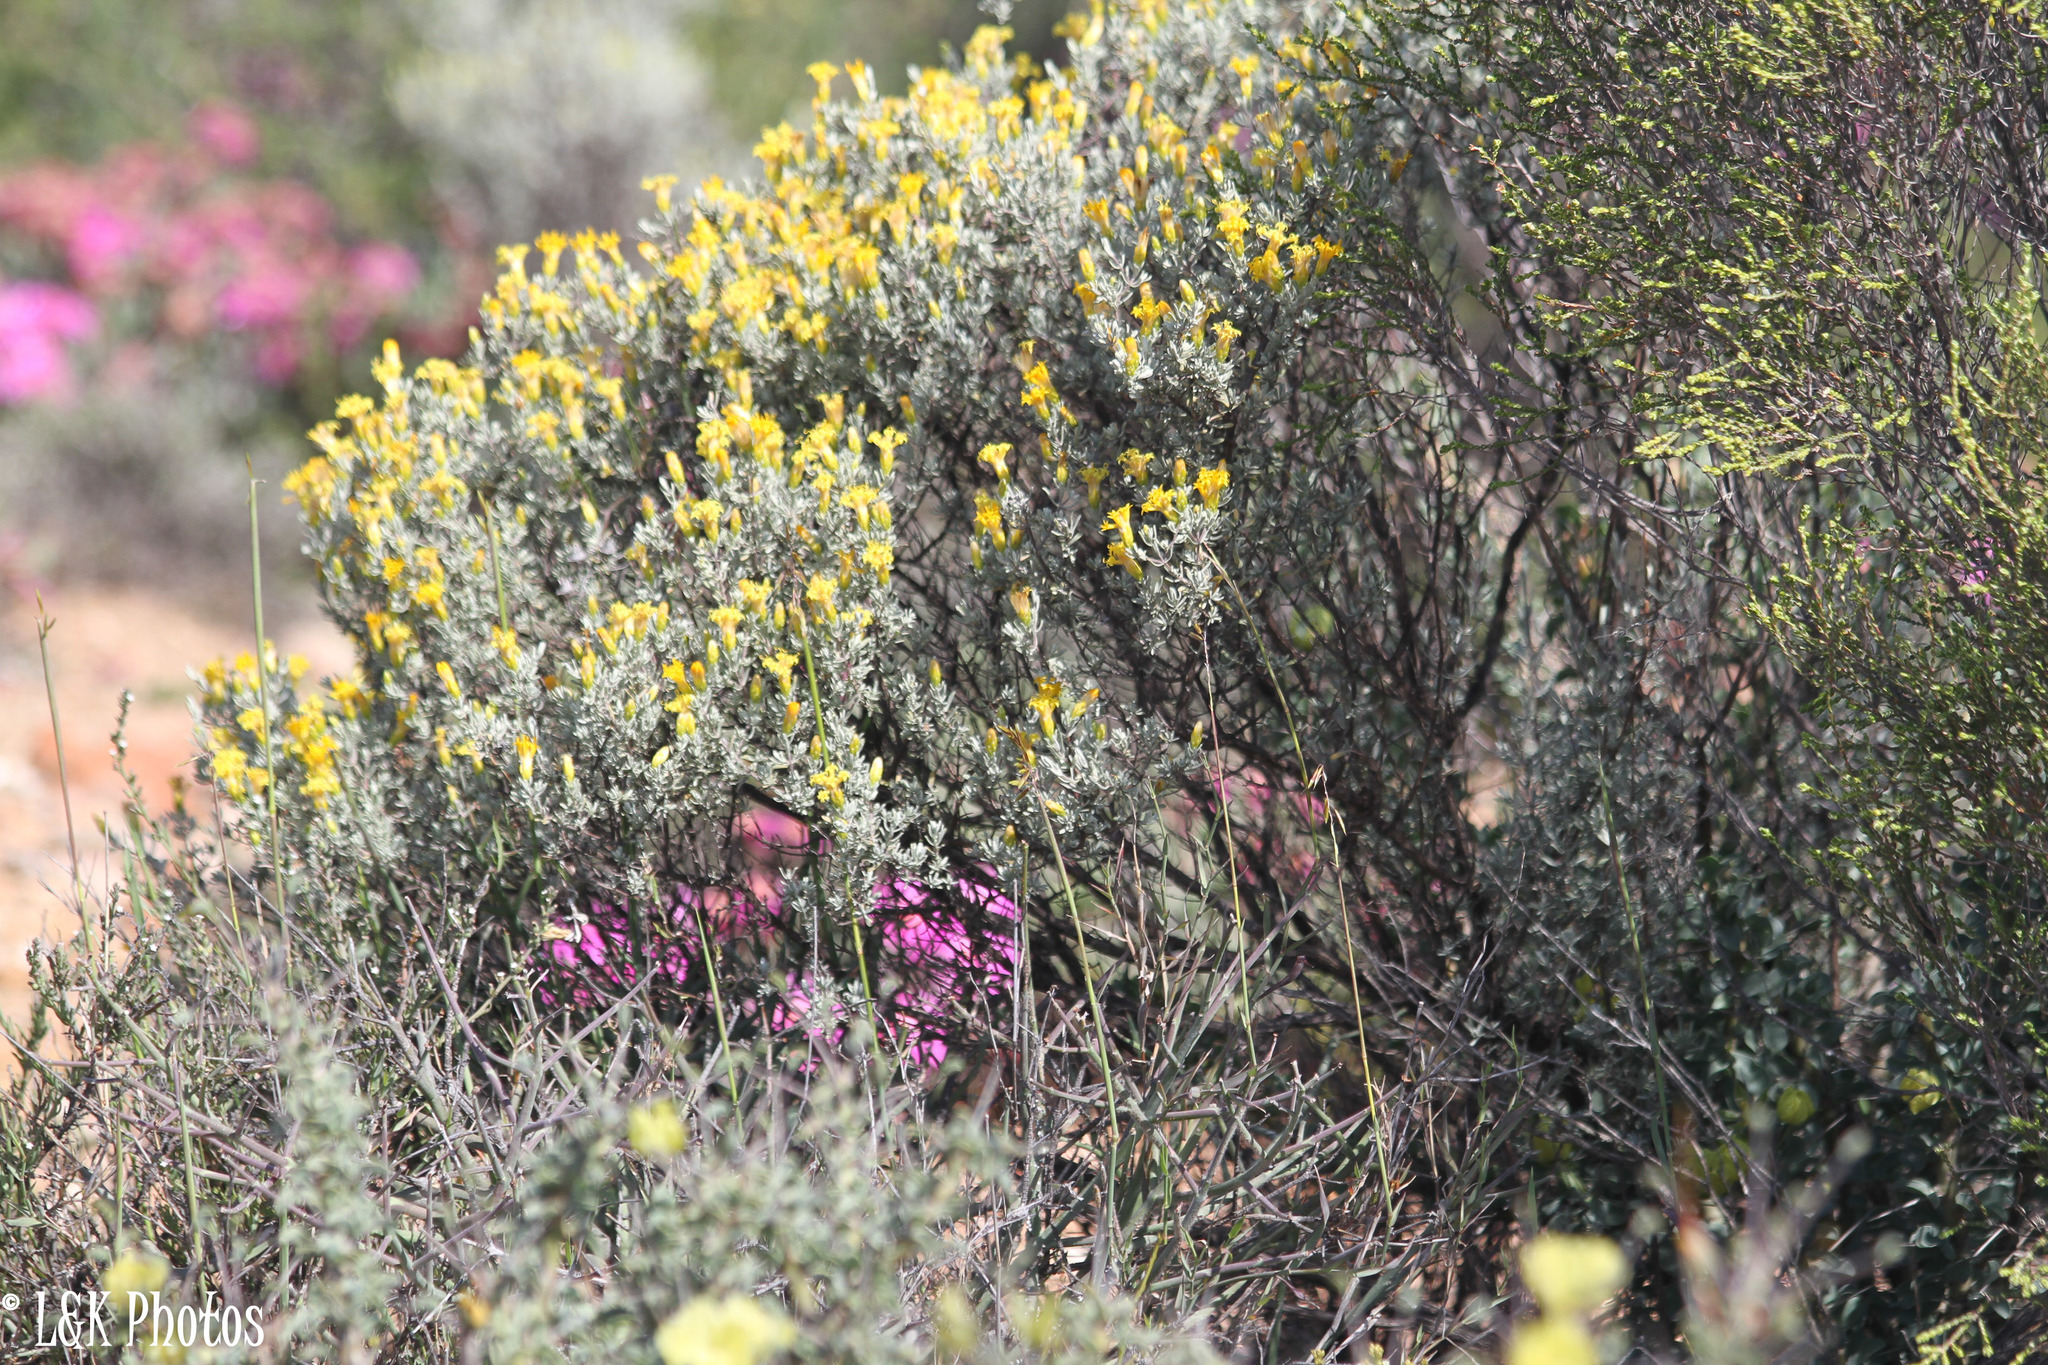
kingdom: Plantae
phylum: Tracheophyta
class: Magnoliopsida
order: Asterales
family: Asteraceae
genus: Pteronia
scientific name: Pteronia incana
